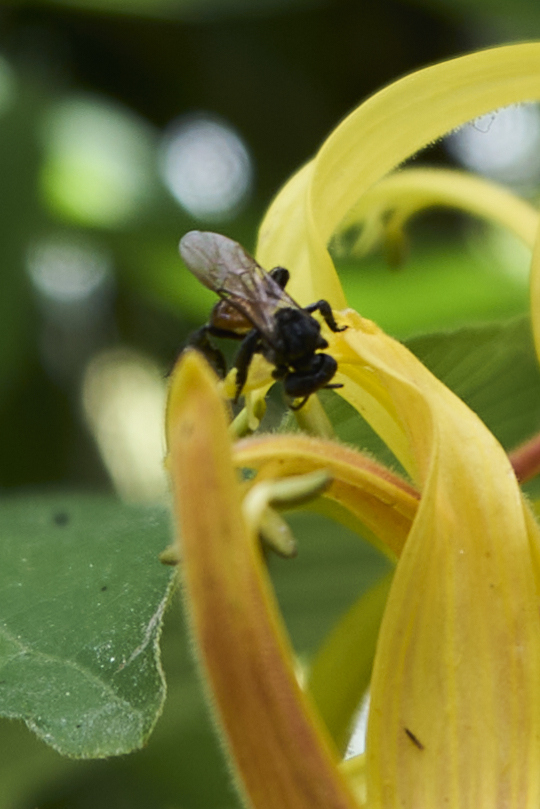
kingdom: Animalia
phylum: Arthropoda
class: Insecta
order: Hymenoptera
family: Apidae
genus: Trigona
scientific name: Trigona fulviventris
